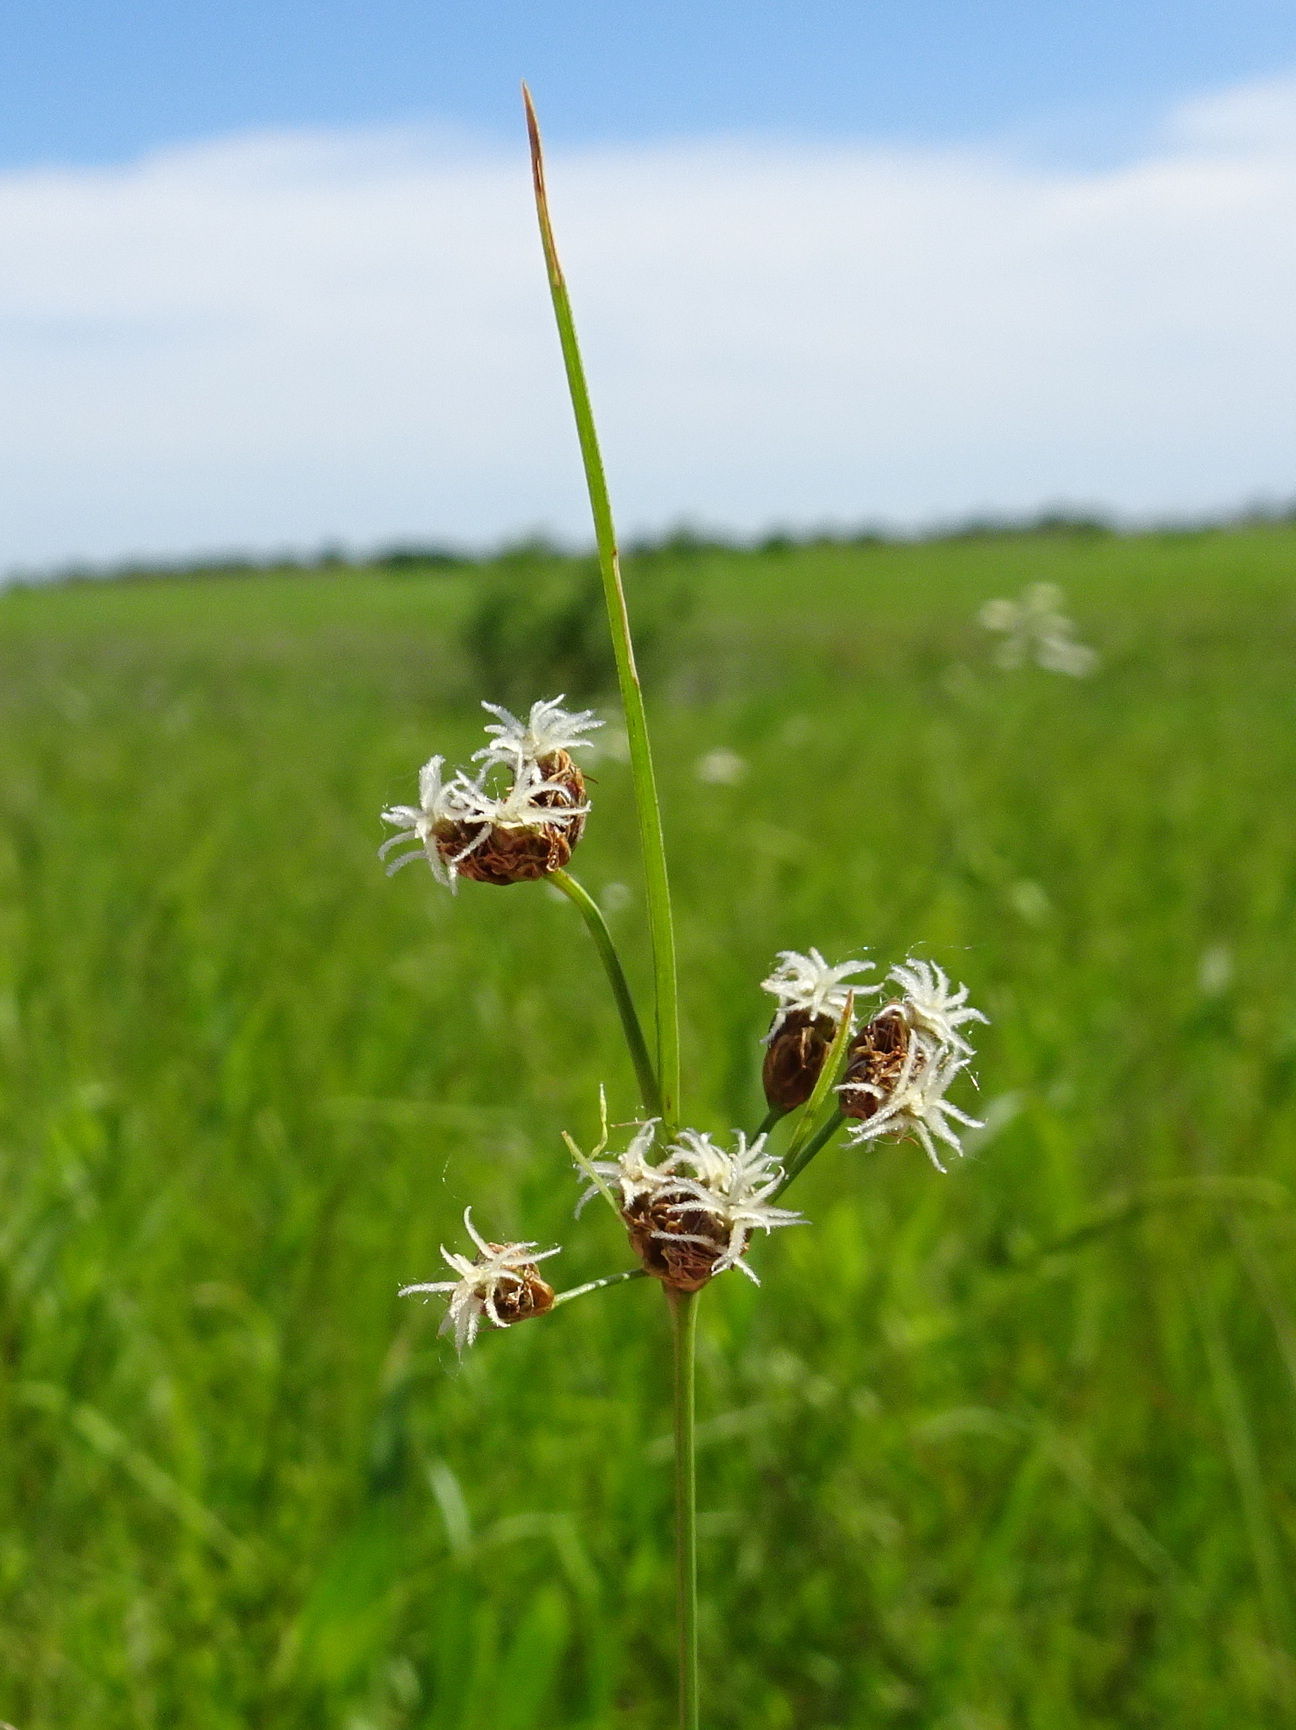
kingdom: Plantae
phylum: Tracheophyta
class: Liliopsida
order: Poales
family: Cyperaceae
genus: Fimbristylis
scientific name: Fimbristylis puberula
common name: Hairy fimbristylis
